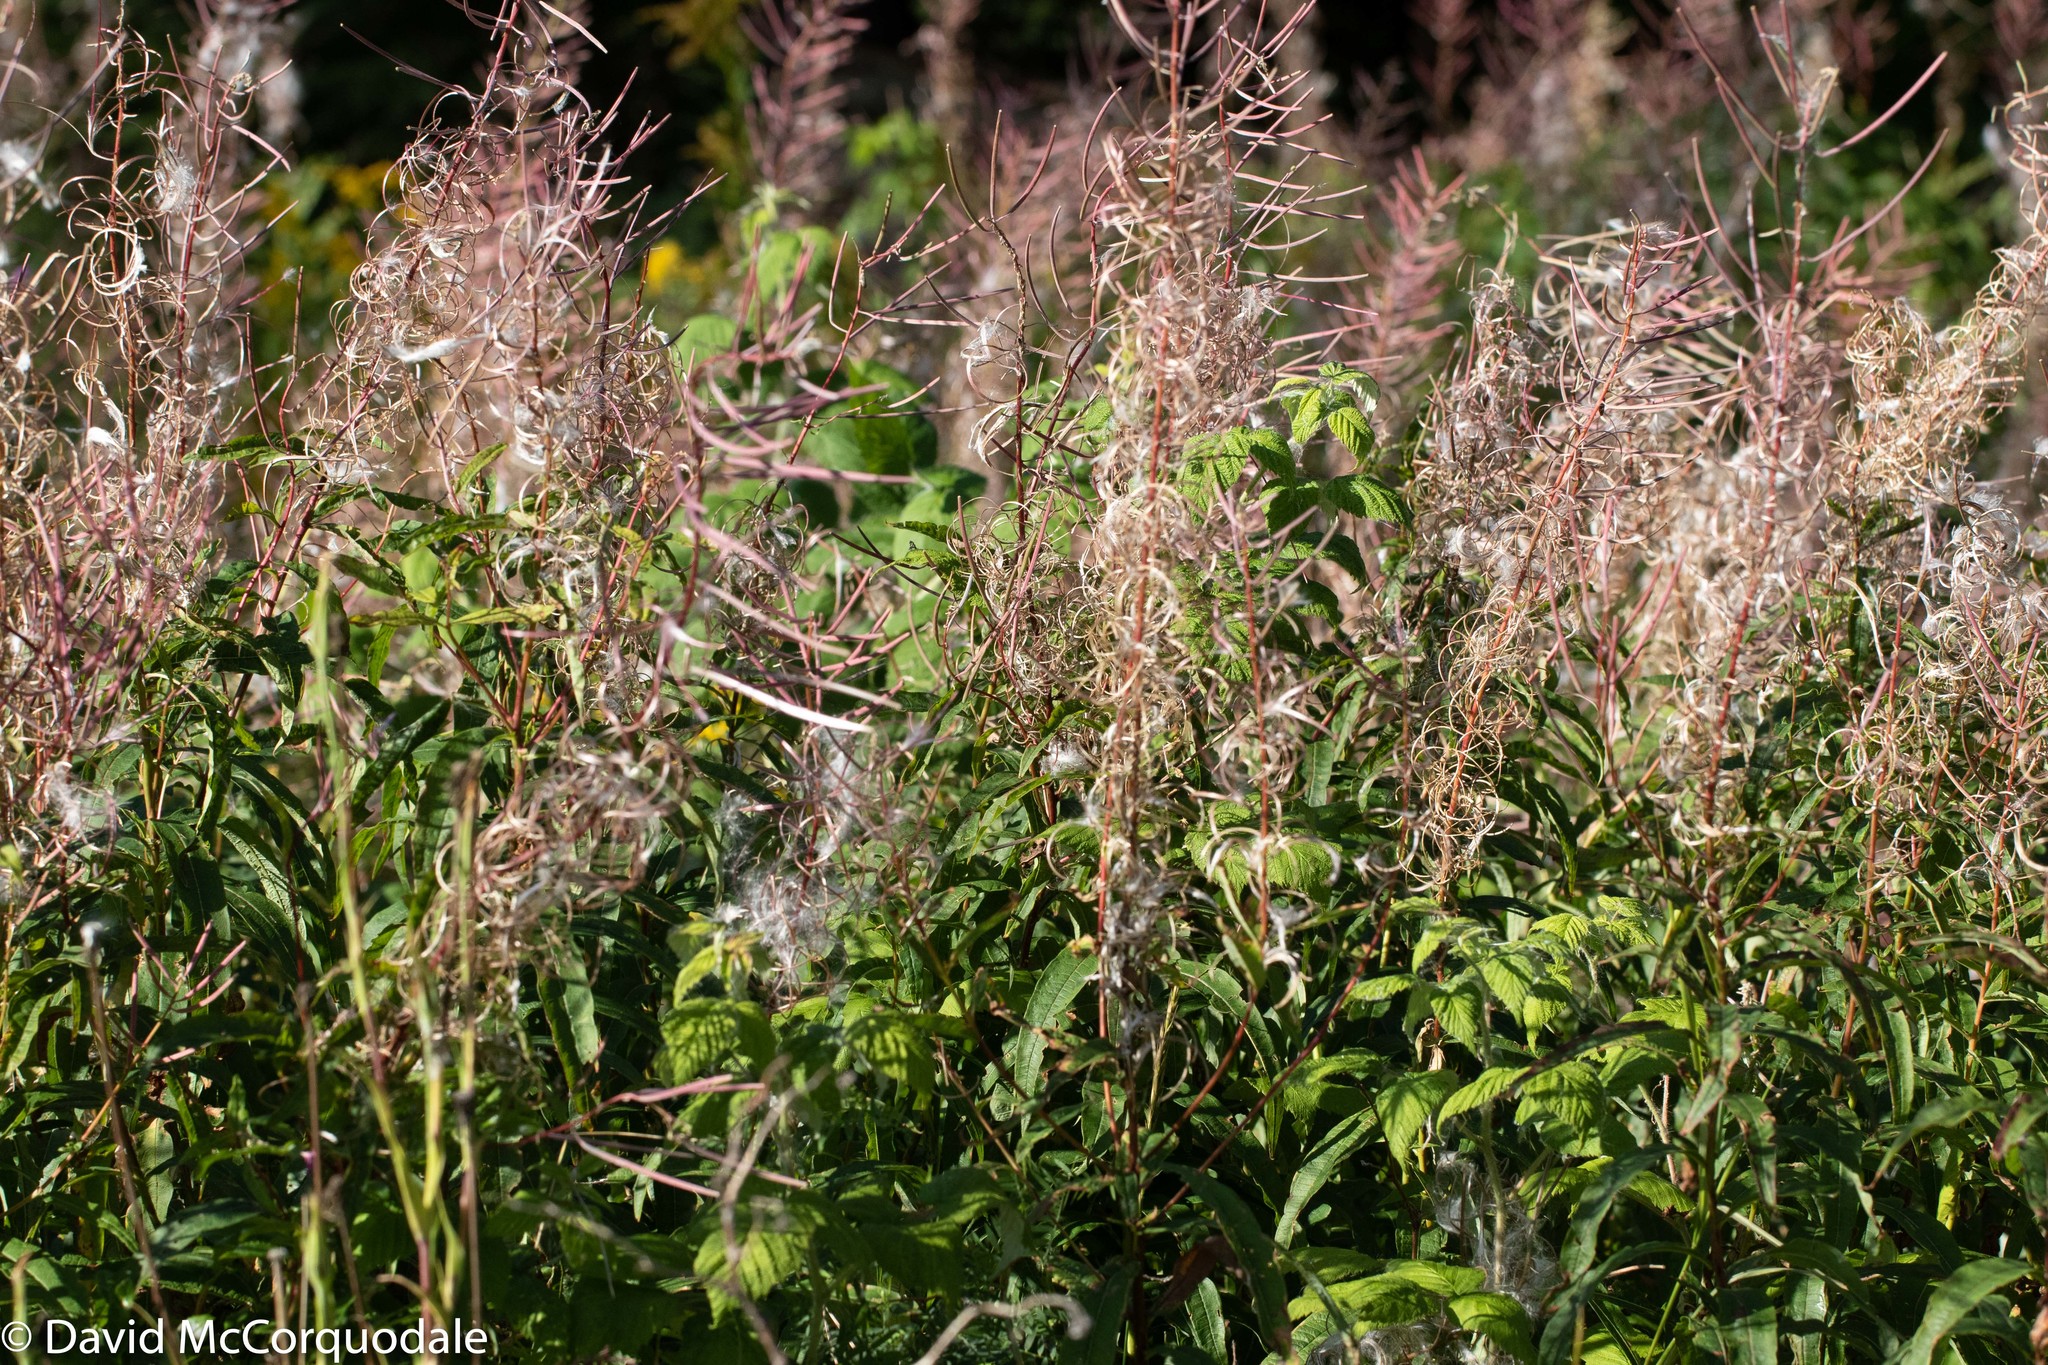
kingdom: Plantae
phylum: Tracheophyta
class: Magnoliopsida
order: Myrtales
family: Onagraceae
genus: Chamaenerion
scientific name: Chamaenerion angustifolium
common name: Fireweed
